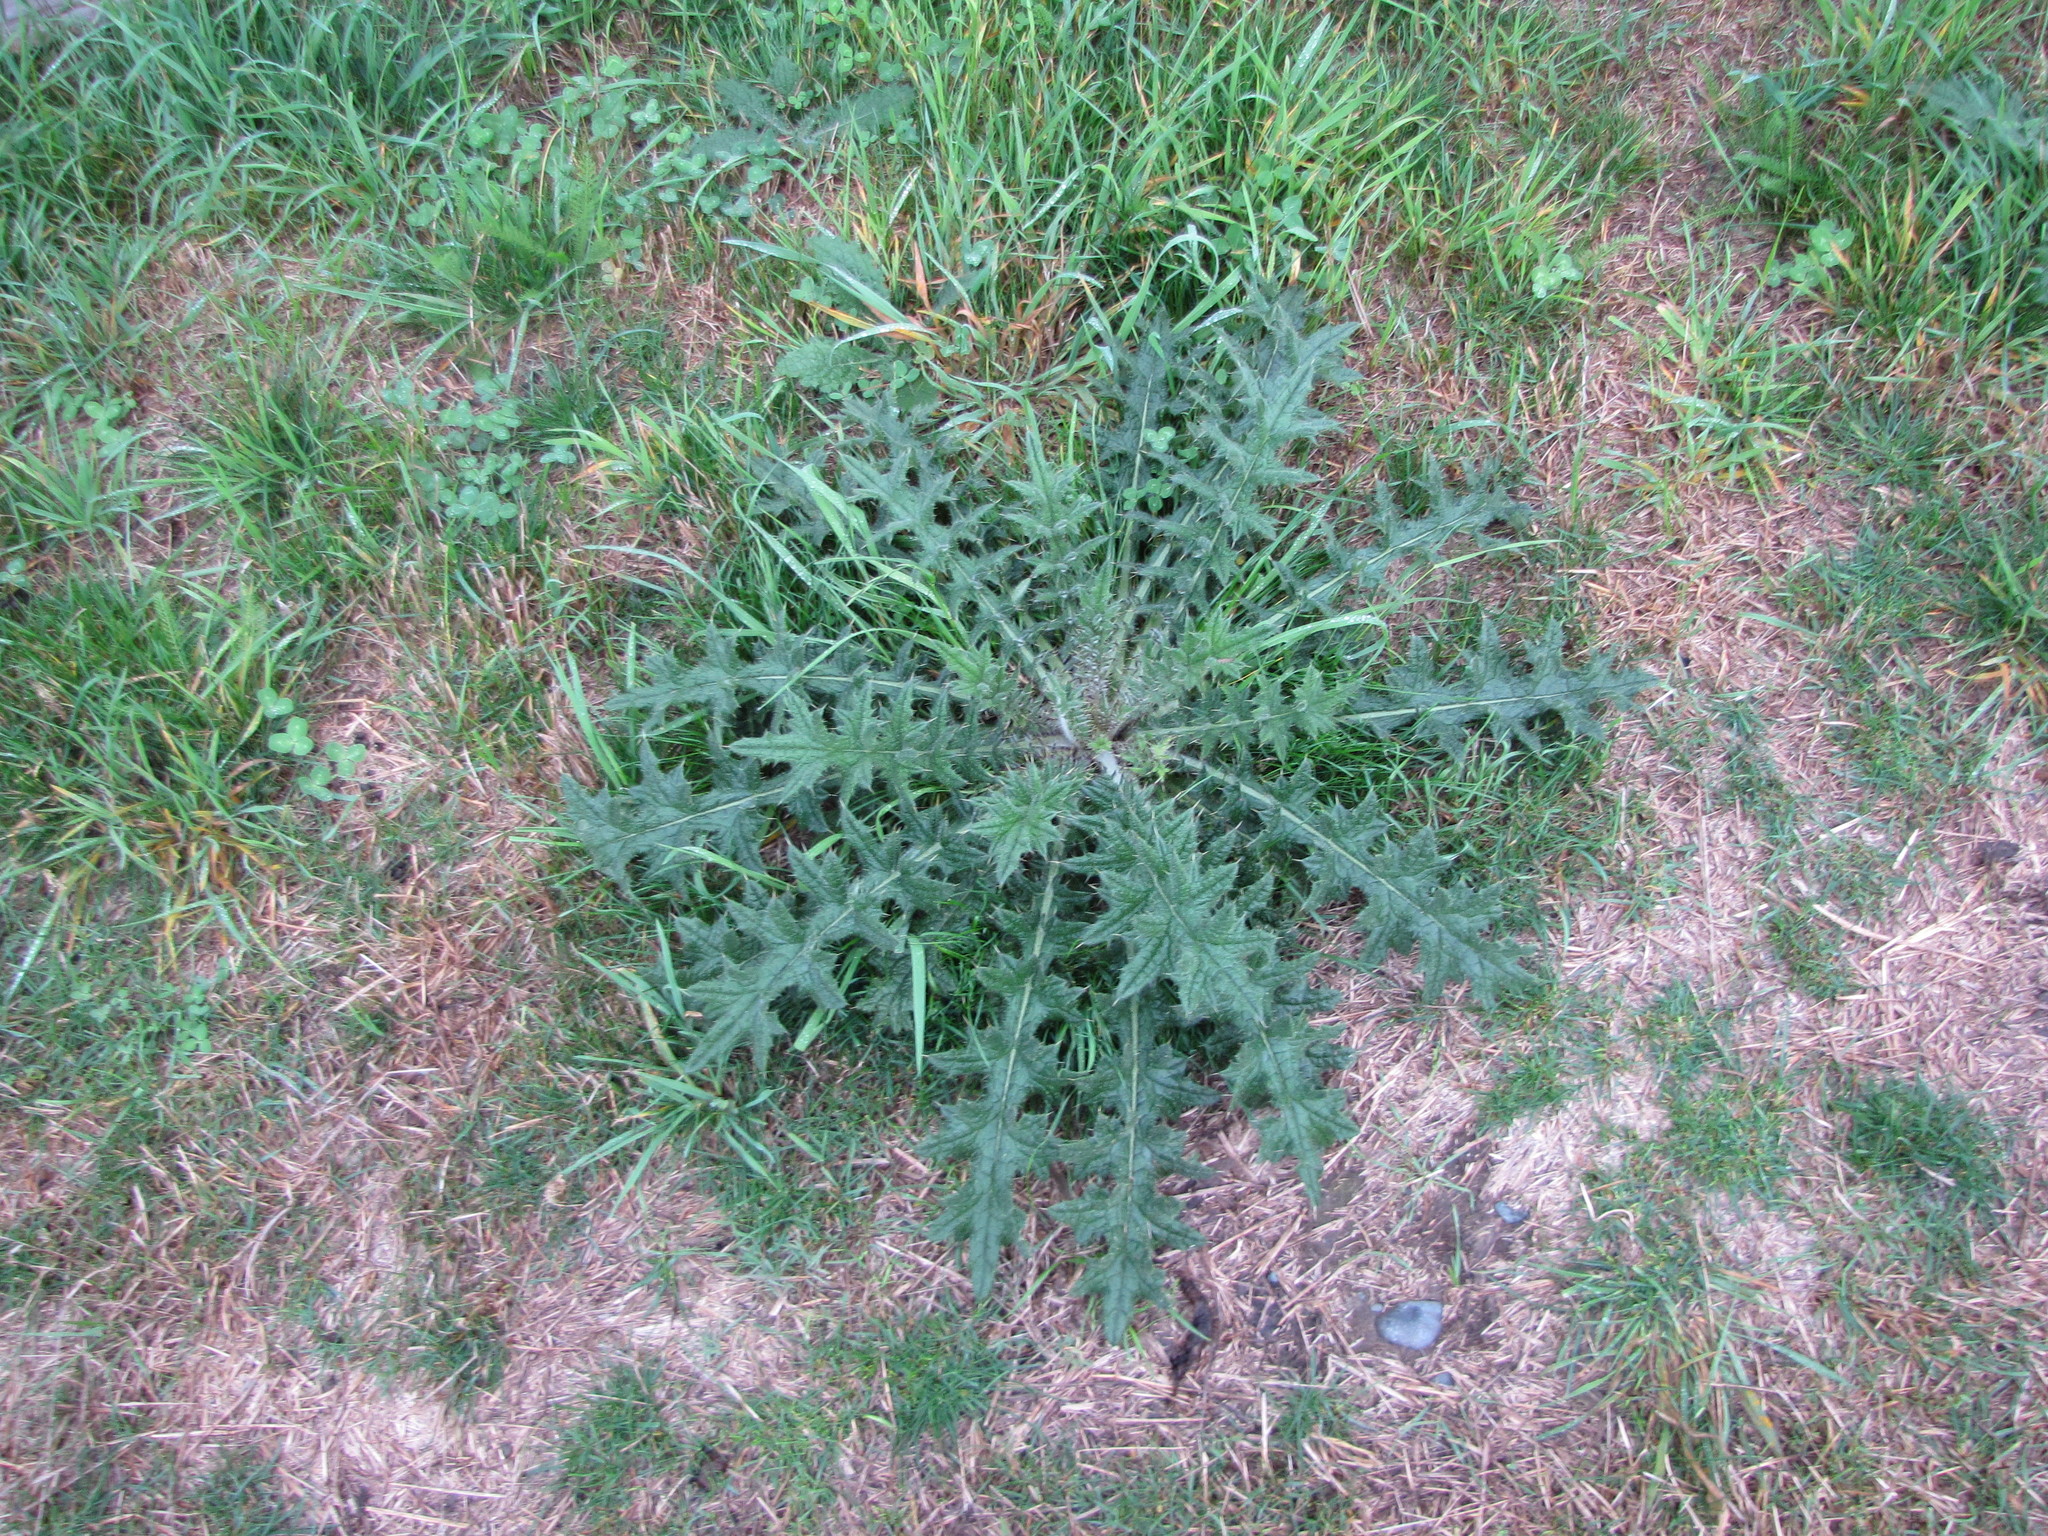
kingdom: Plantae
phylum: Tracheophyta
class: Magnoliopsida
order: Asterales
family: Asteraceae
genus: Cirsium
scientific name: Cirsium vulgare
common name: Bull thistle
